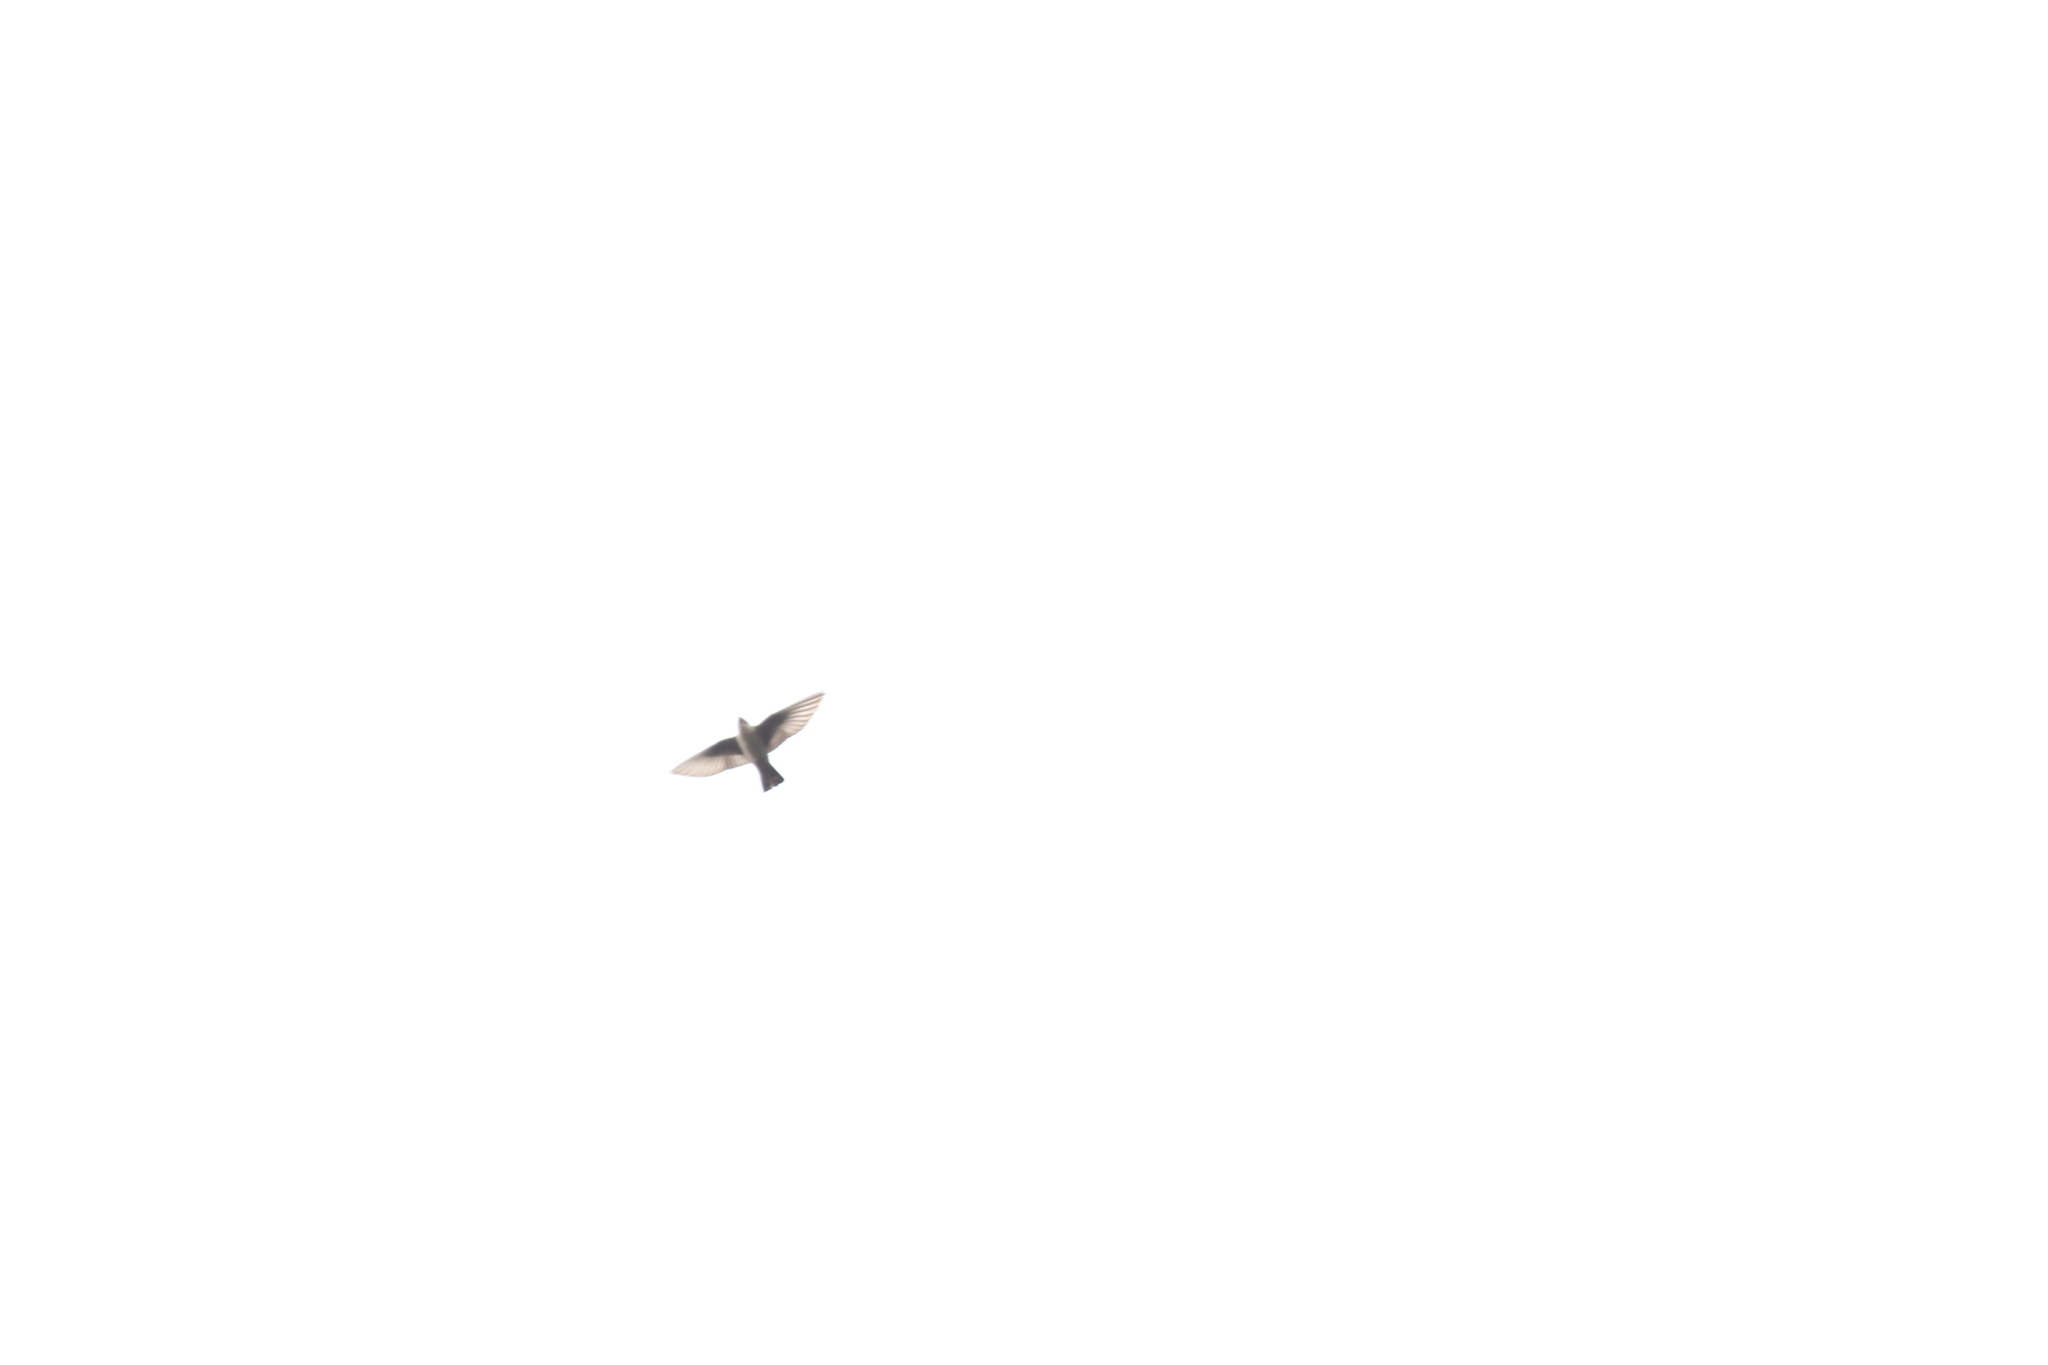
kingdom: Animalia
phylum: Chordata
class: Aves
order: Passeriformes
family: Hirundinidae
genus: Ptyonoprogne
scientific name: Ptyonoprogne rupestris
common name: Eurasian crag martin
